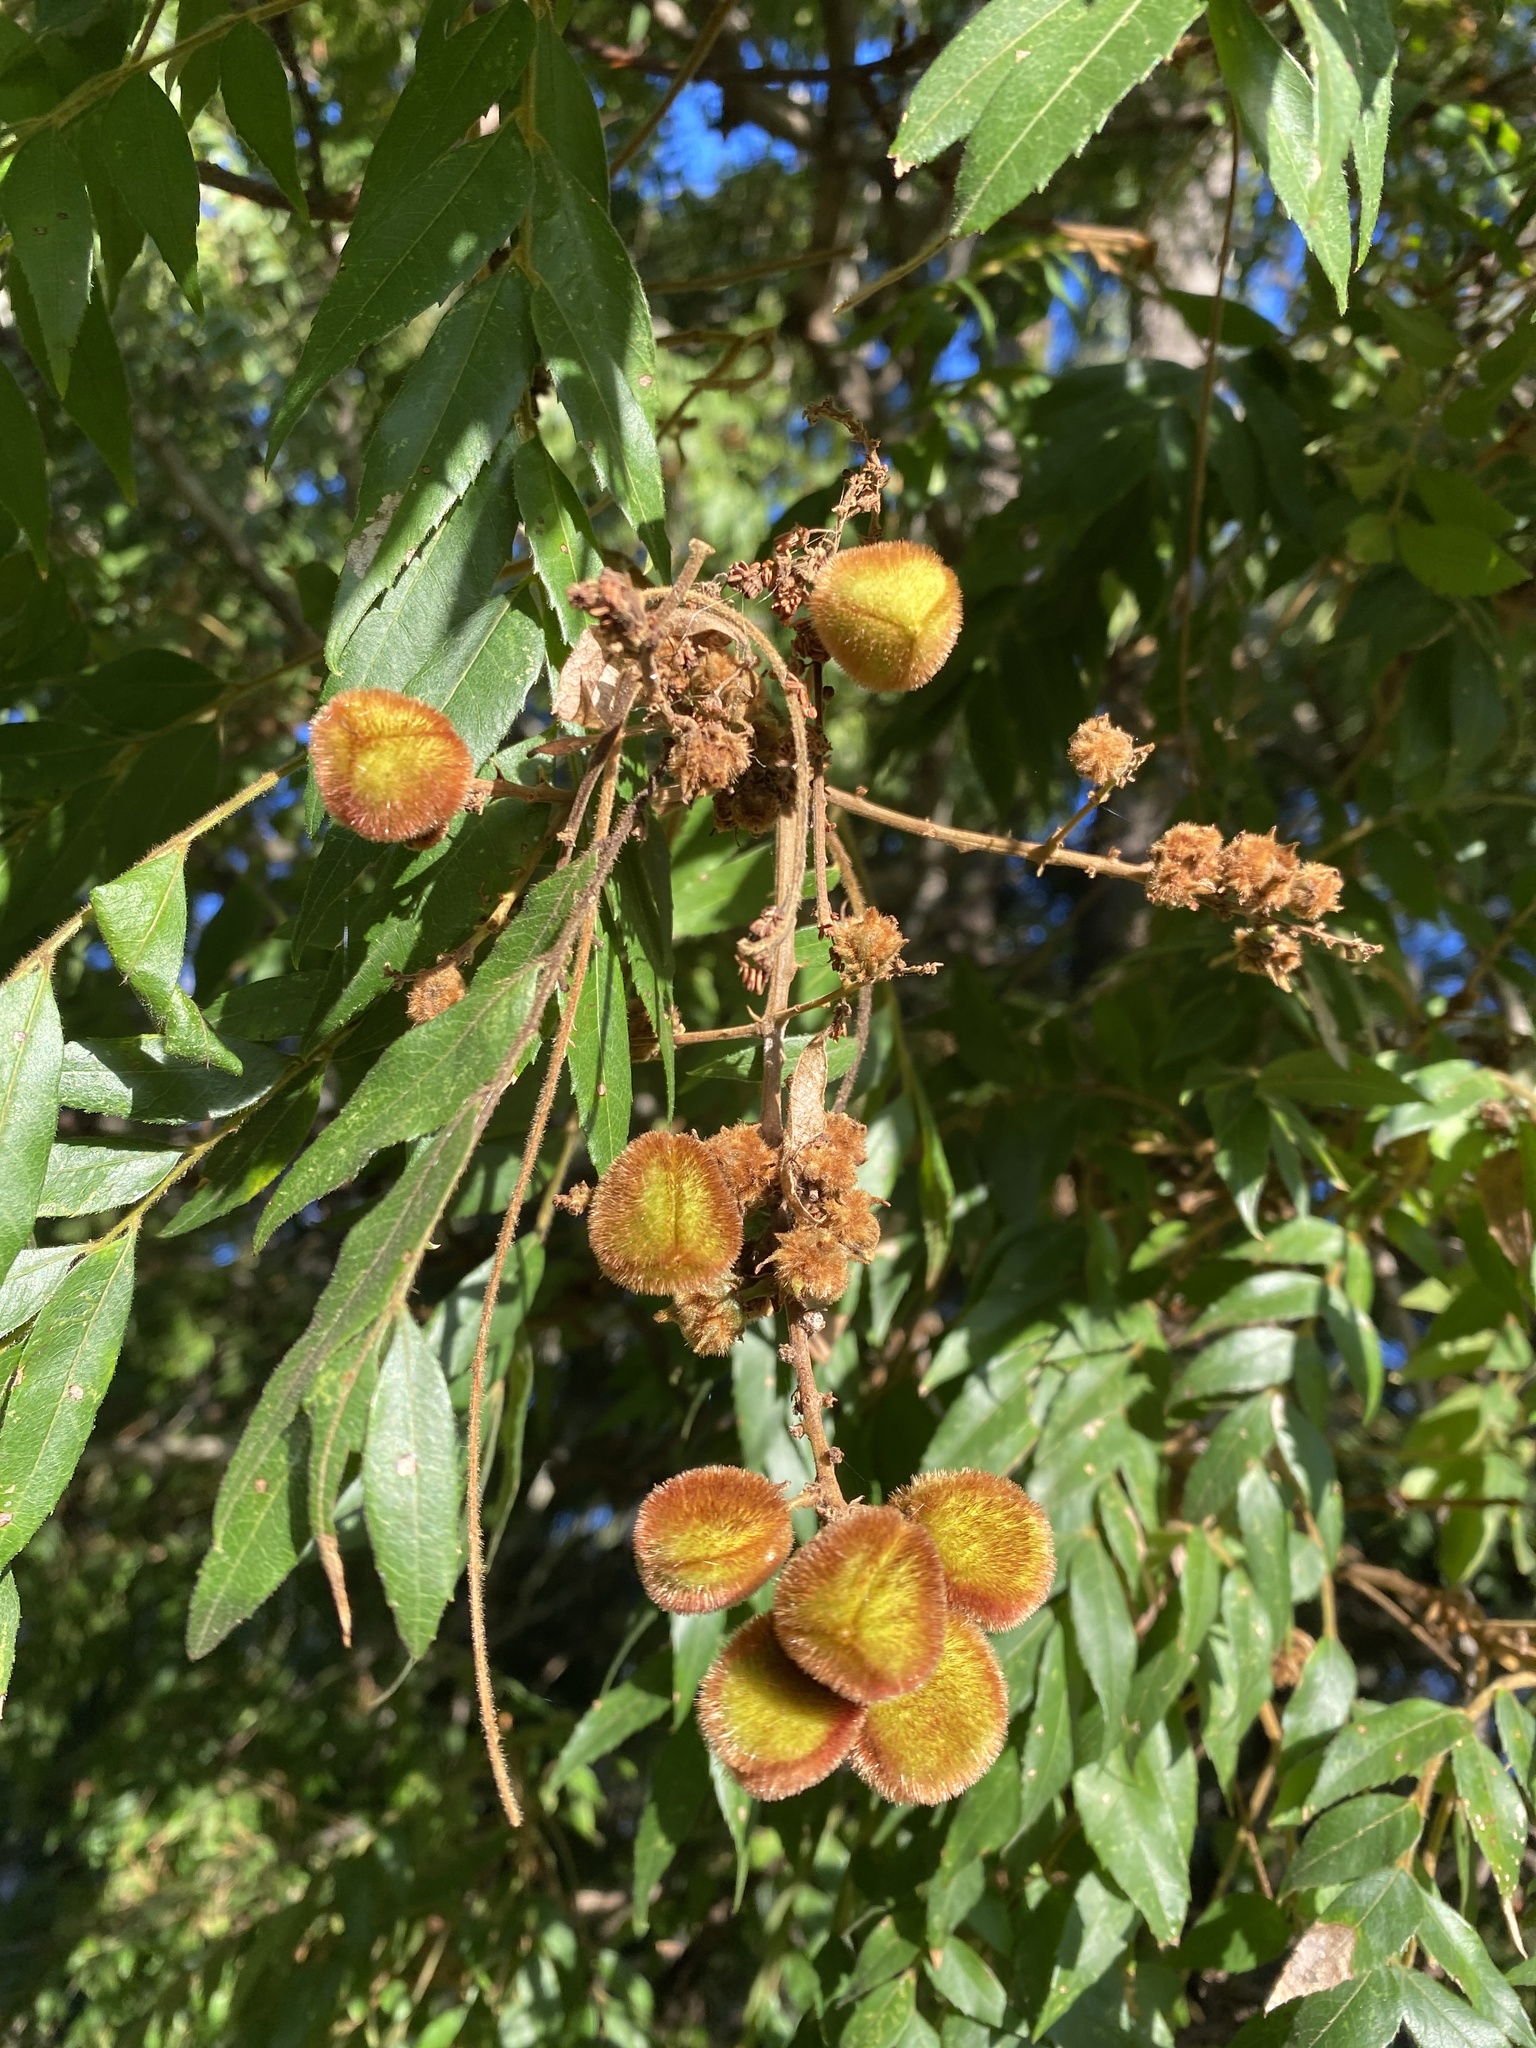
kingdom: Plantae
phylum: Tracheophyta
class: Magnoliopsida
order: Sapindales
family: Sapindaceae
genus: Jagera
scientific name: Jagera pseudorhus
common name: Fern-leaf-tamarind
